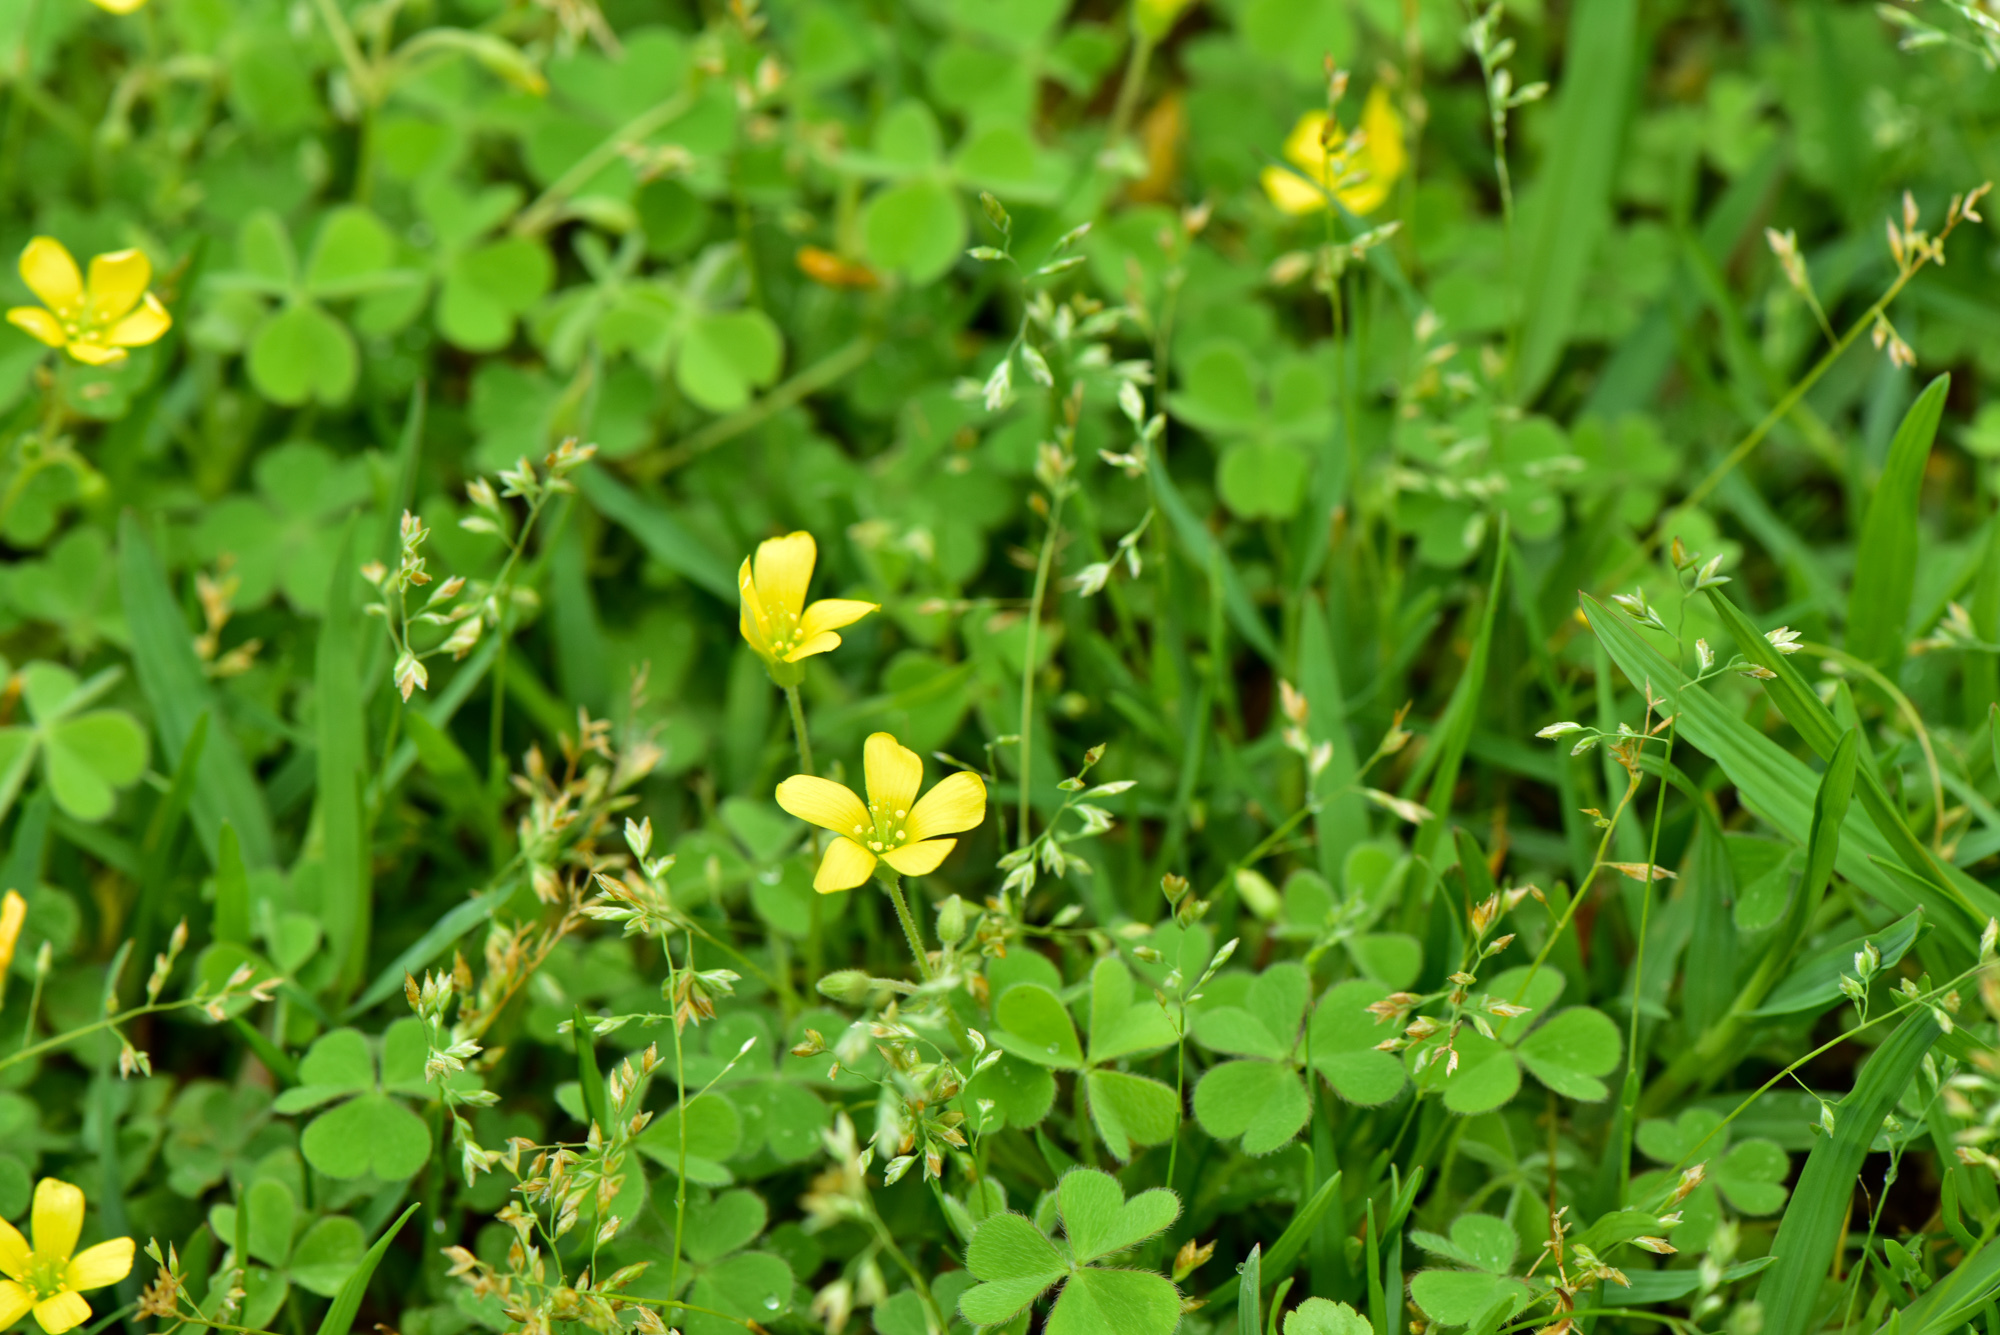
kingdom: Plantae
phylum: Tracheophyta
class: Magnoliopsida
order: Oxalidales
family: Oxalidaceae
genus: Oxalis
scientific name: Oxalis corniculata
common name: Procumbent yellow-sorrel
